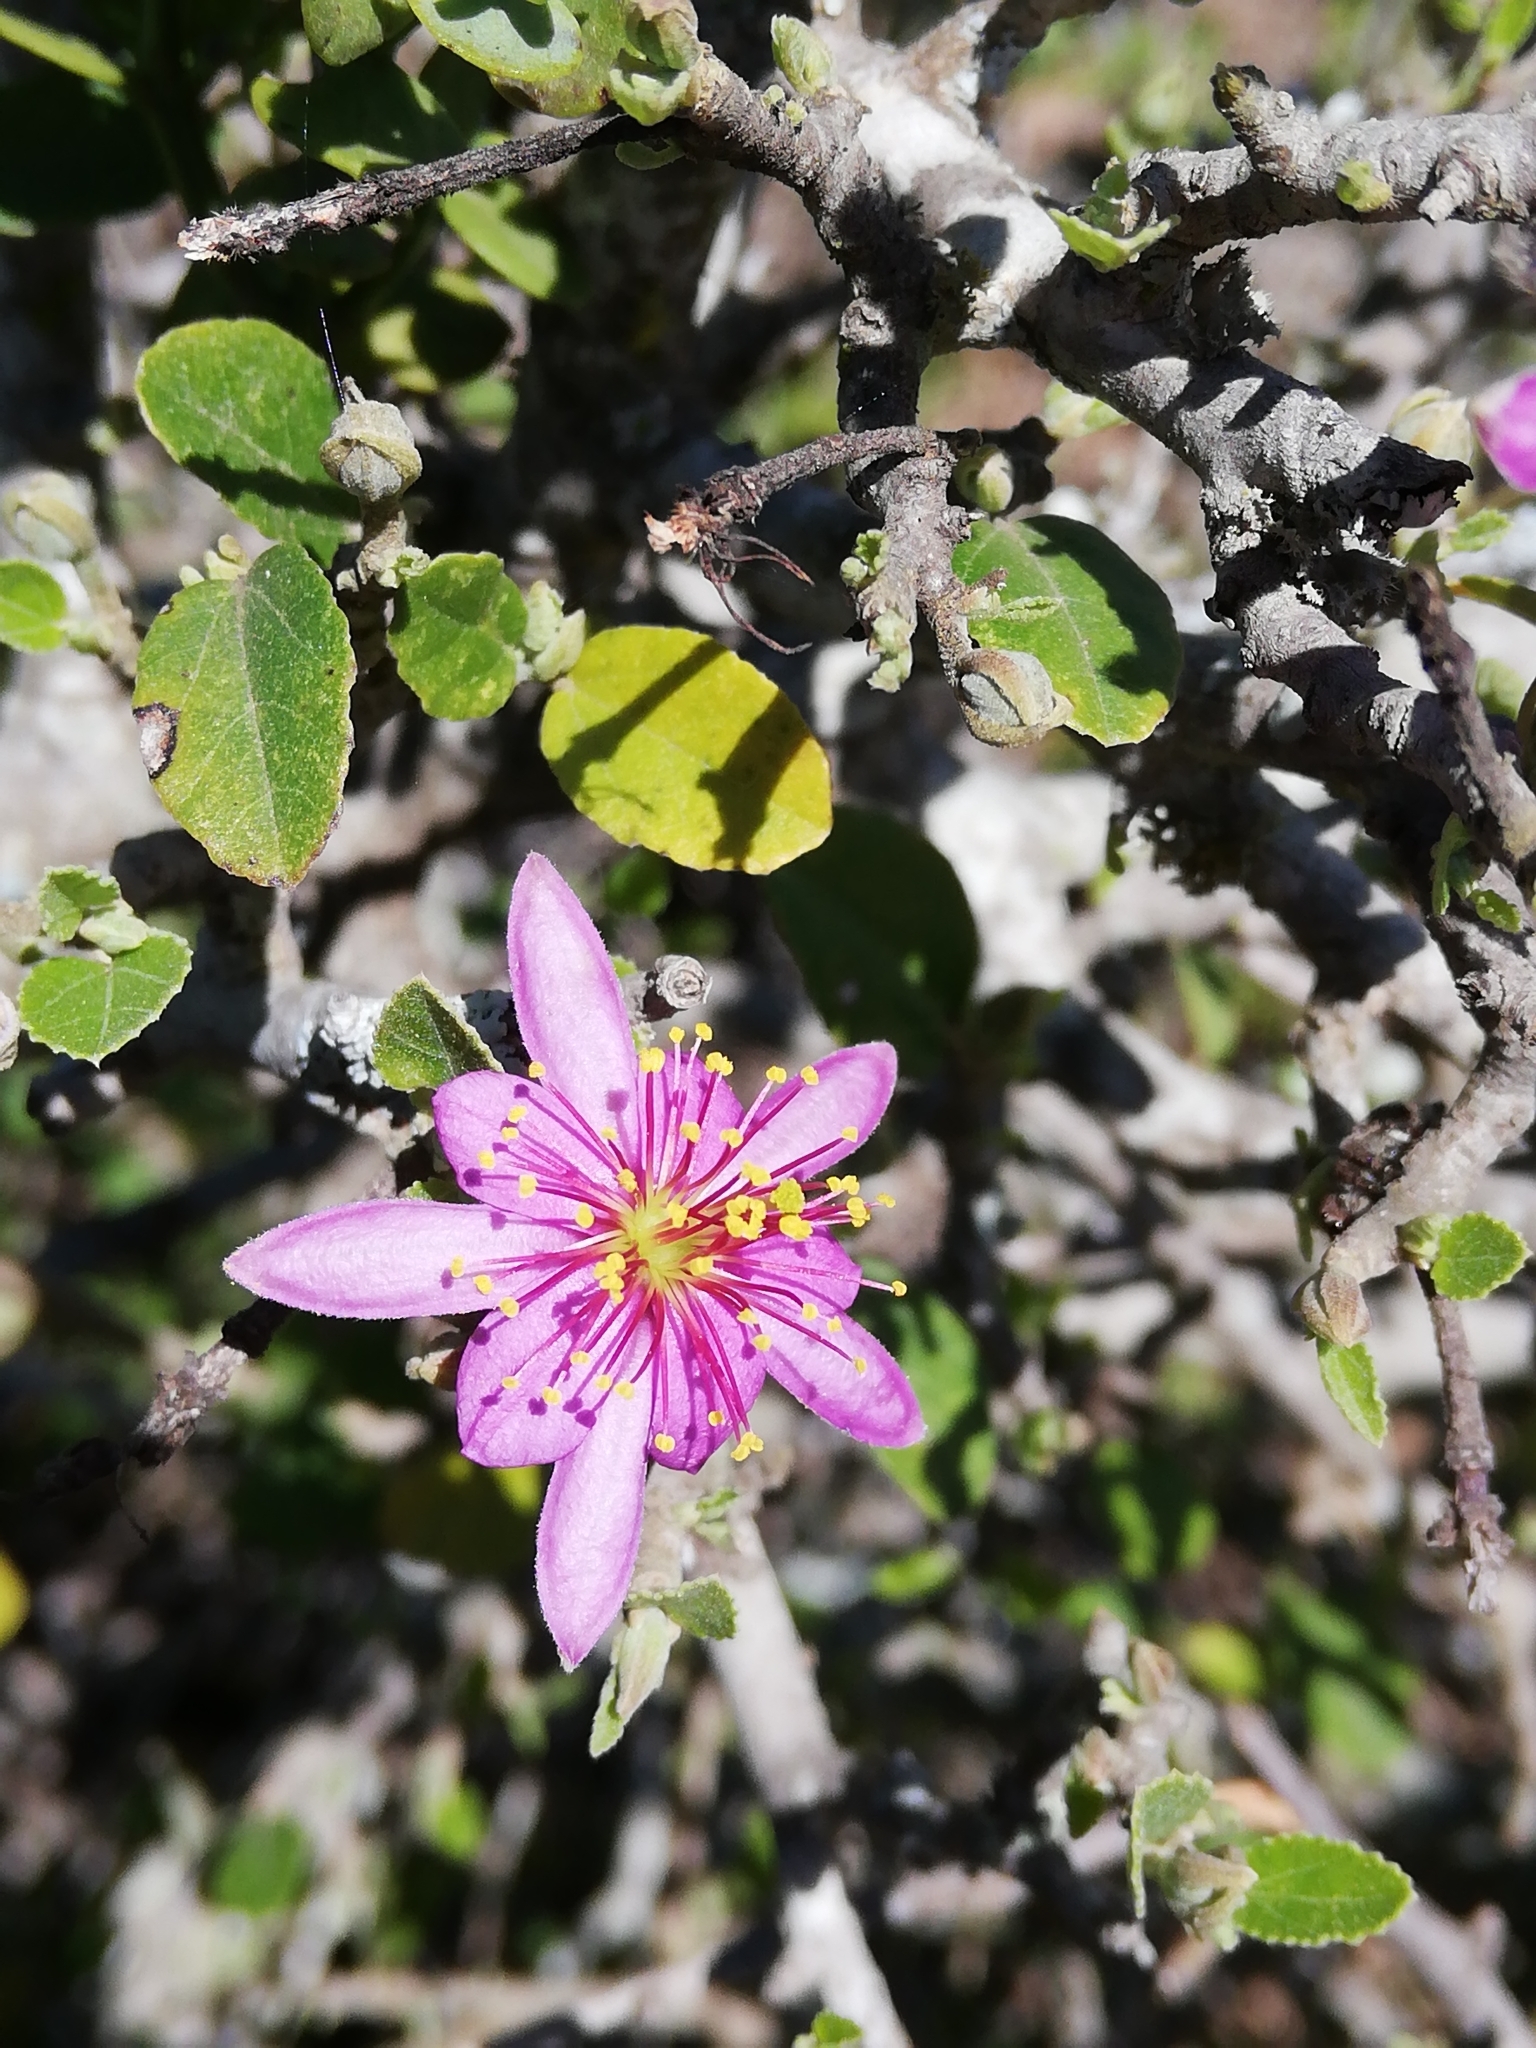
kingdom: Plantae
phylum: Tracheophyta
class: Magnoliopsida
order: Malvales
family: Malvaceae
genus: Grewia
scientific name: Grewia robusta
